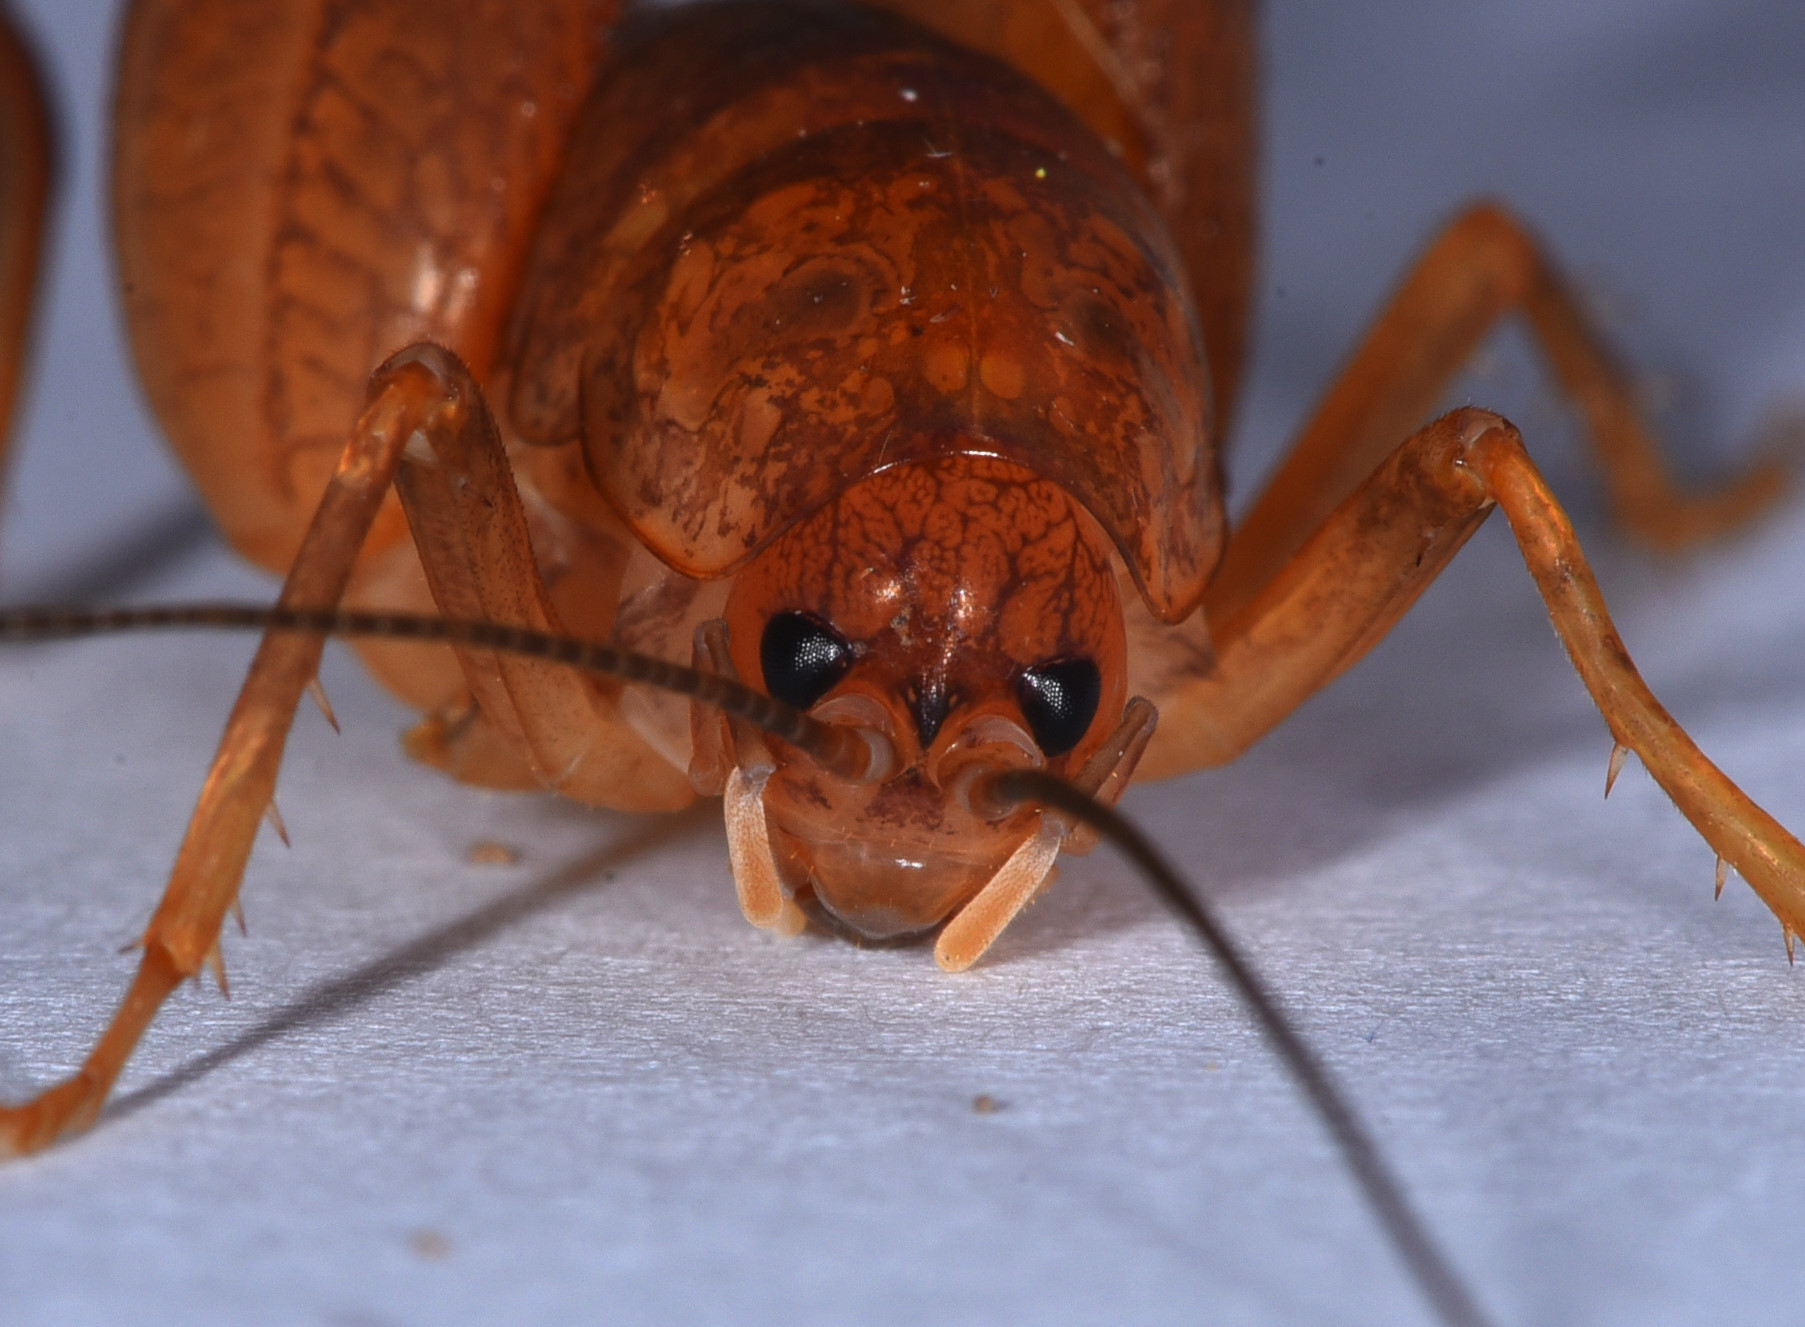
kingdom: Animalia
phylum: Arthropoda
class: Insecta
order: Orthoptera
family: Rhaphidophoridae
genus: Pristoceuthophilus
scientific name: Pristoceuthophilus pacificus
